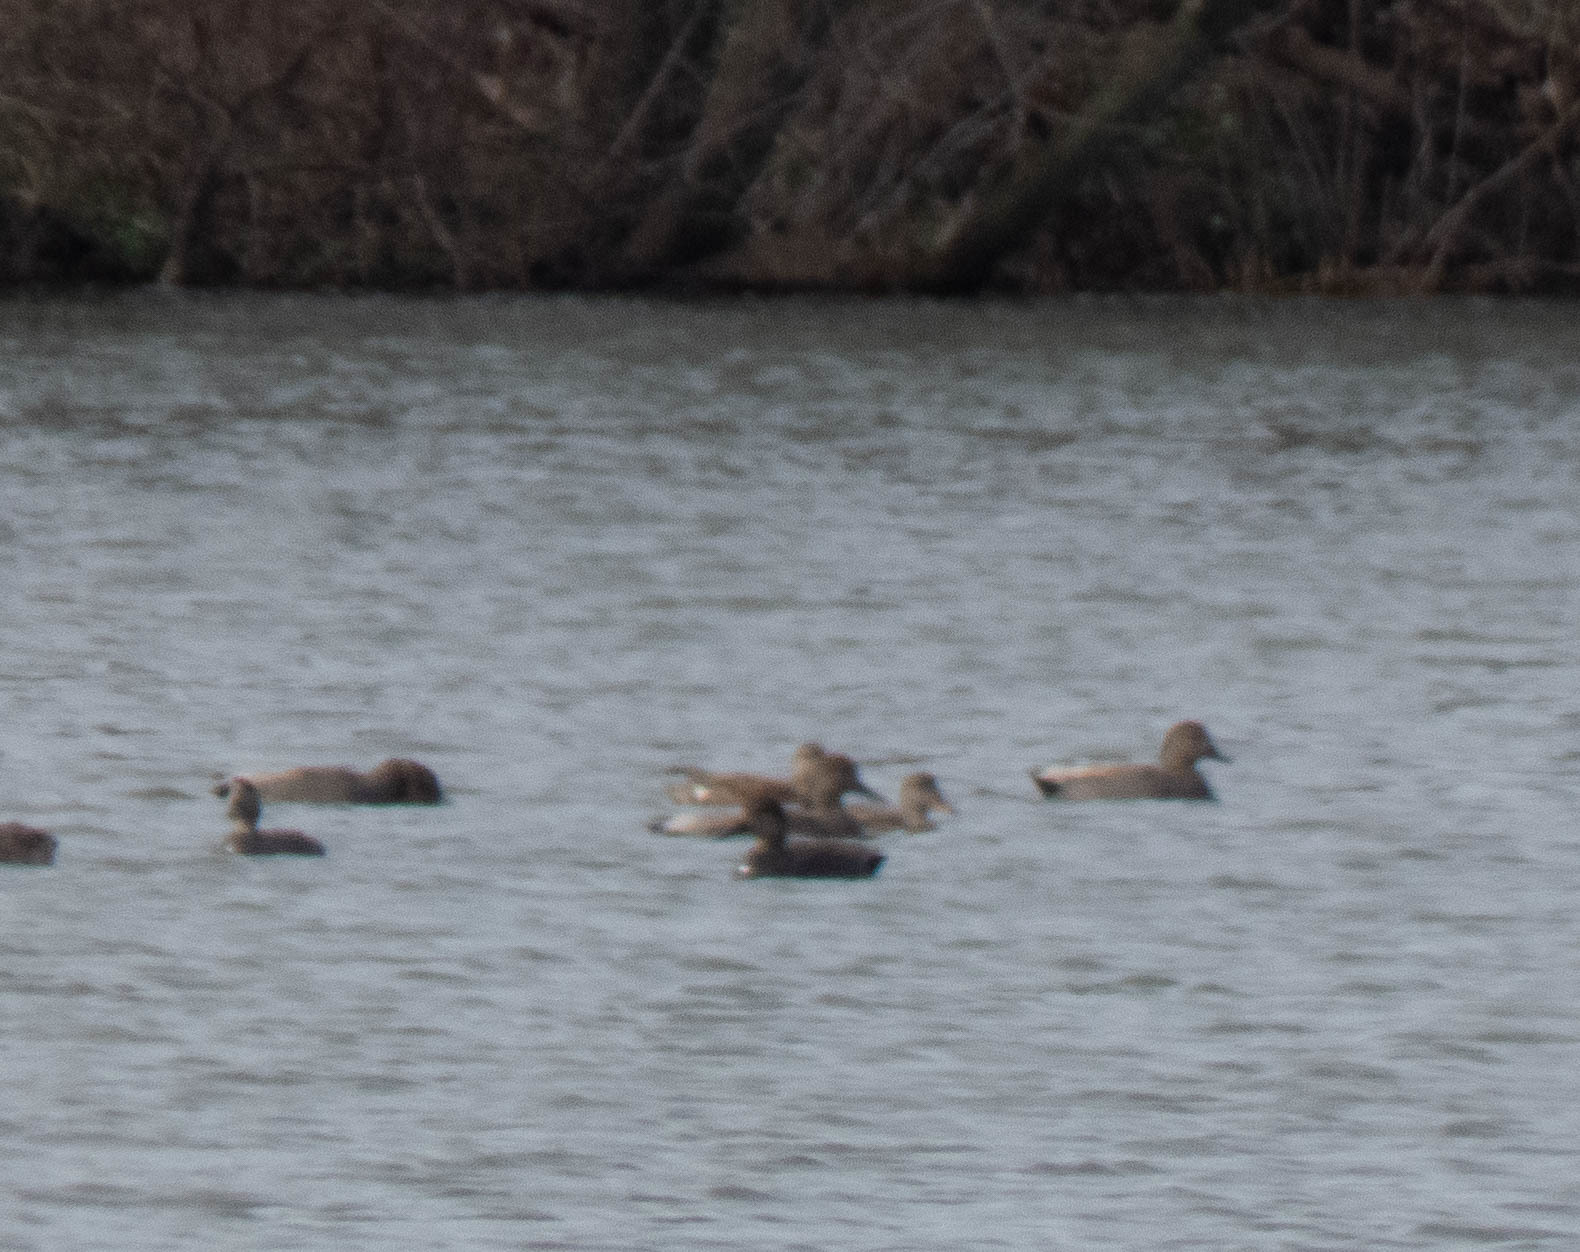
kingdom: Animalia
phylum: Chordata
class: Aves
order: Anseriformes
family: Anatidae
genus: Mareca
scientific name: Mareca strepera
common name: Gadwall
